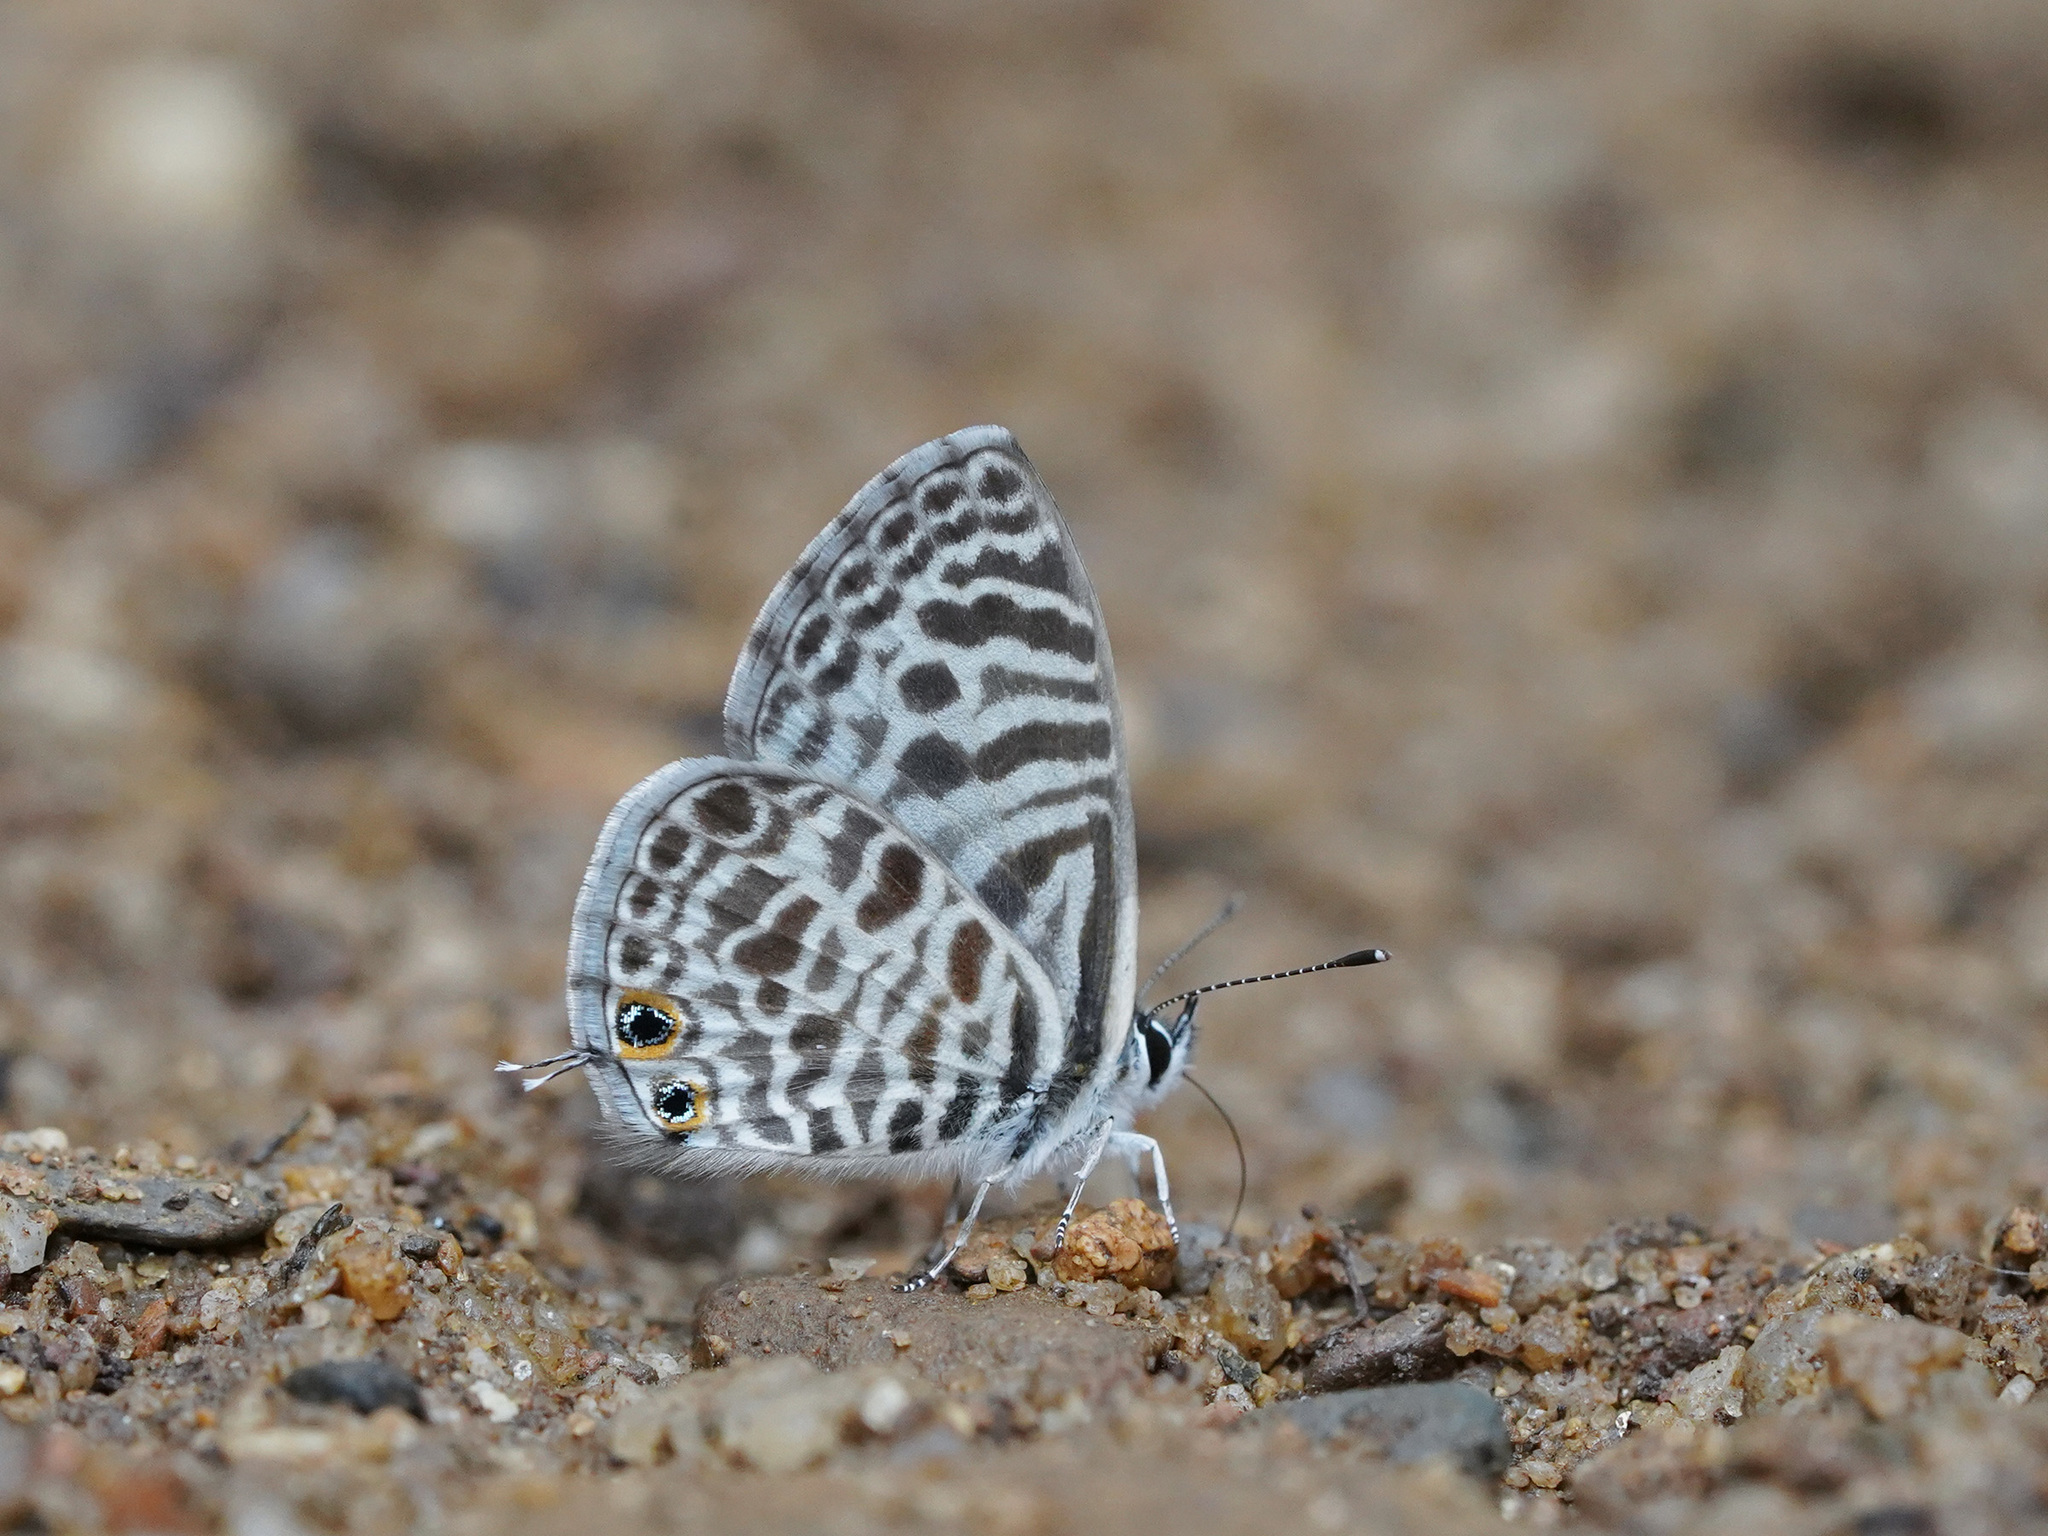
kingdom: Animalia
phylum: Arthropoda
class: Insecta
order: Lepidoptera
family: Lycaenidae
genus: Leptotes
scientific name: Leptotes plinius
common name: Zebra blue
